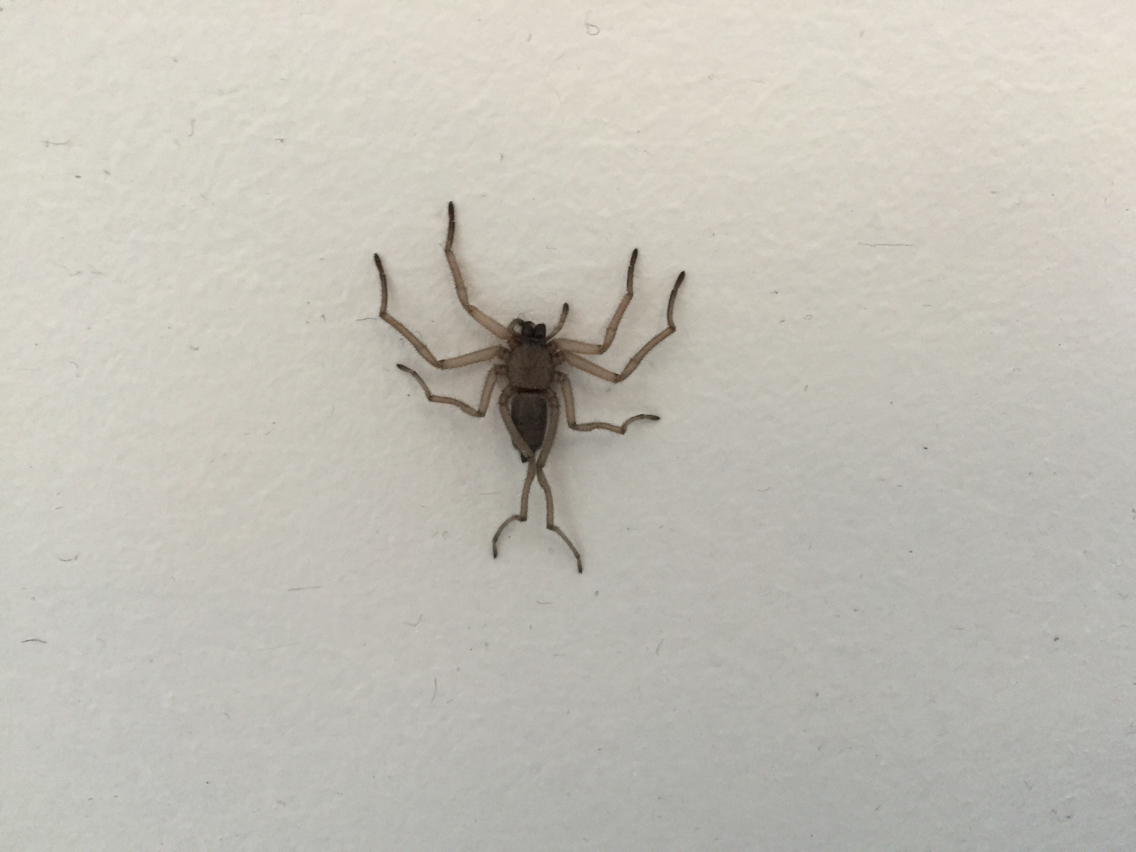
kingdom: Animalia
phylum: Arthropoda
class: Arachnida
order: Araneae
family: Trochanteriidae
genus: Hemicloea
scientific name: Hemicloea rogenhoferi
